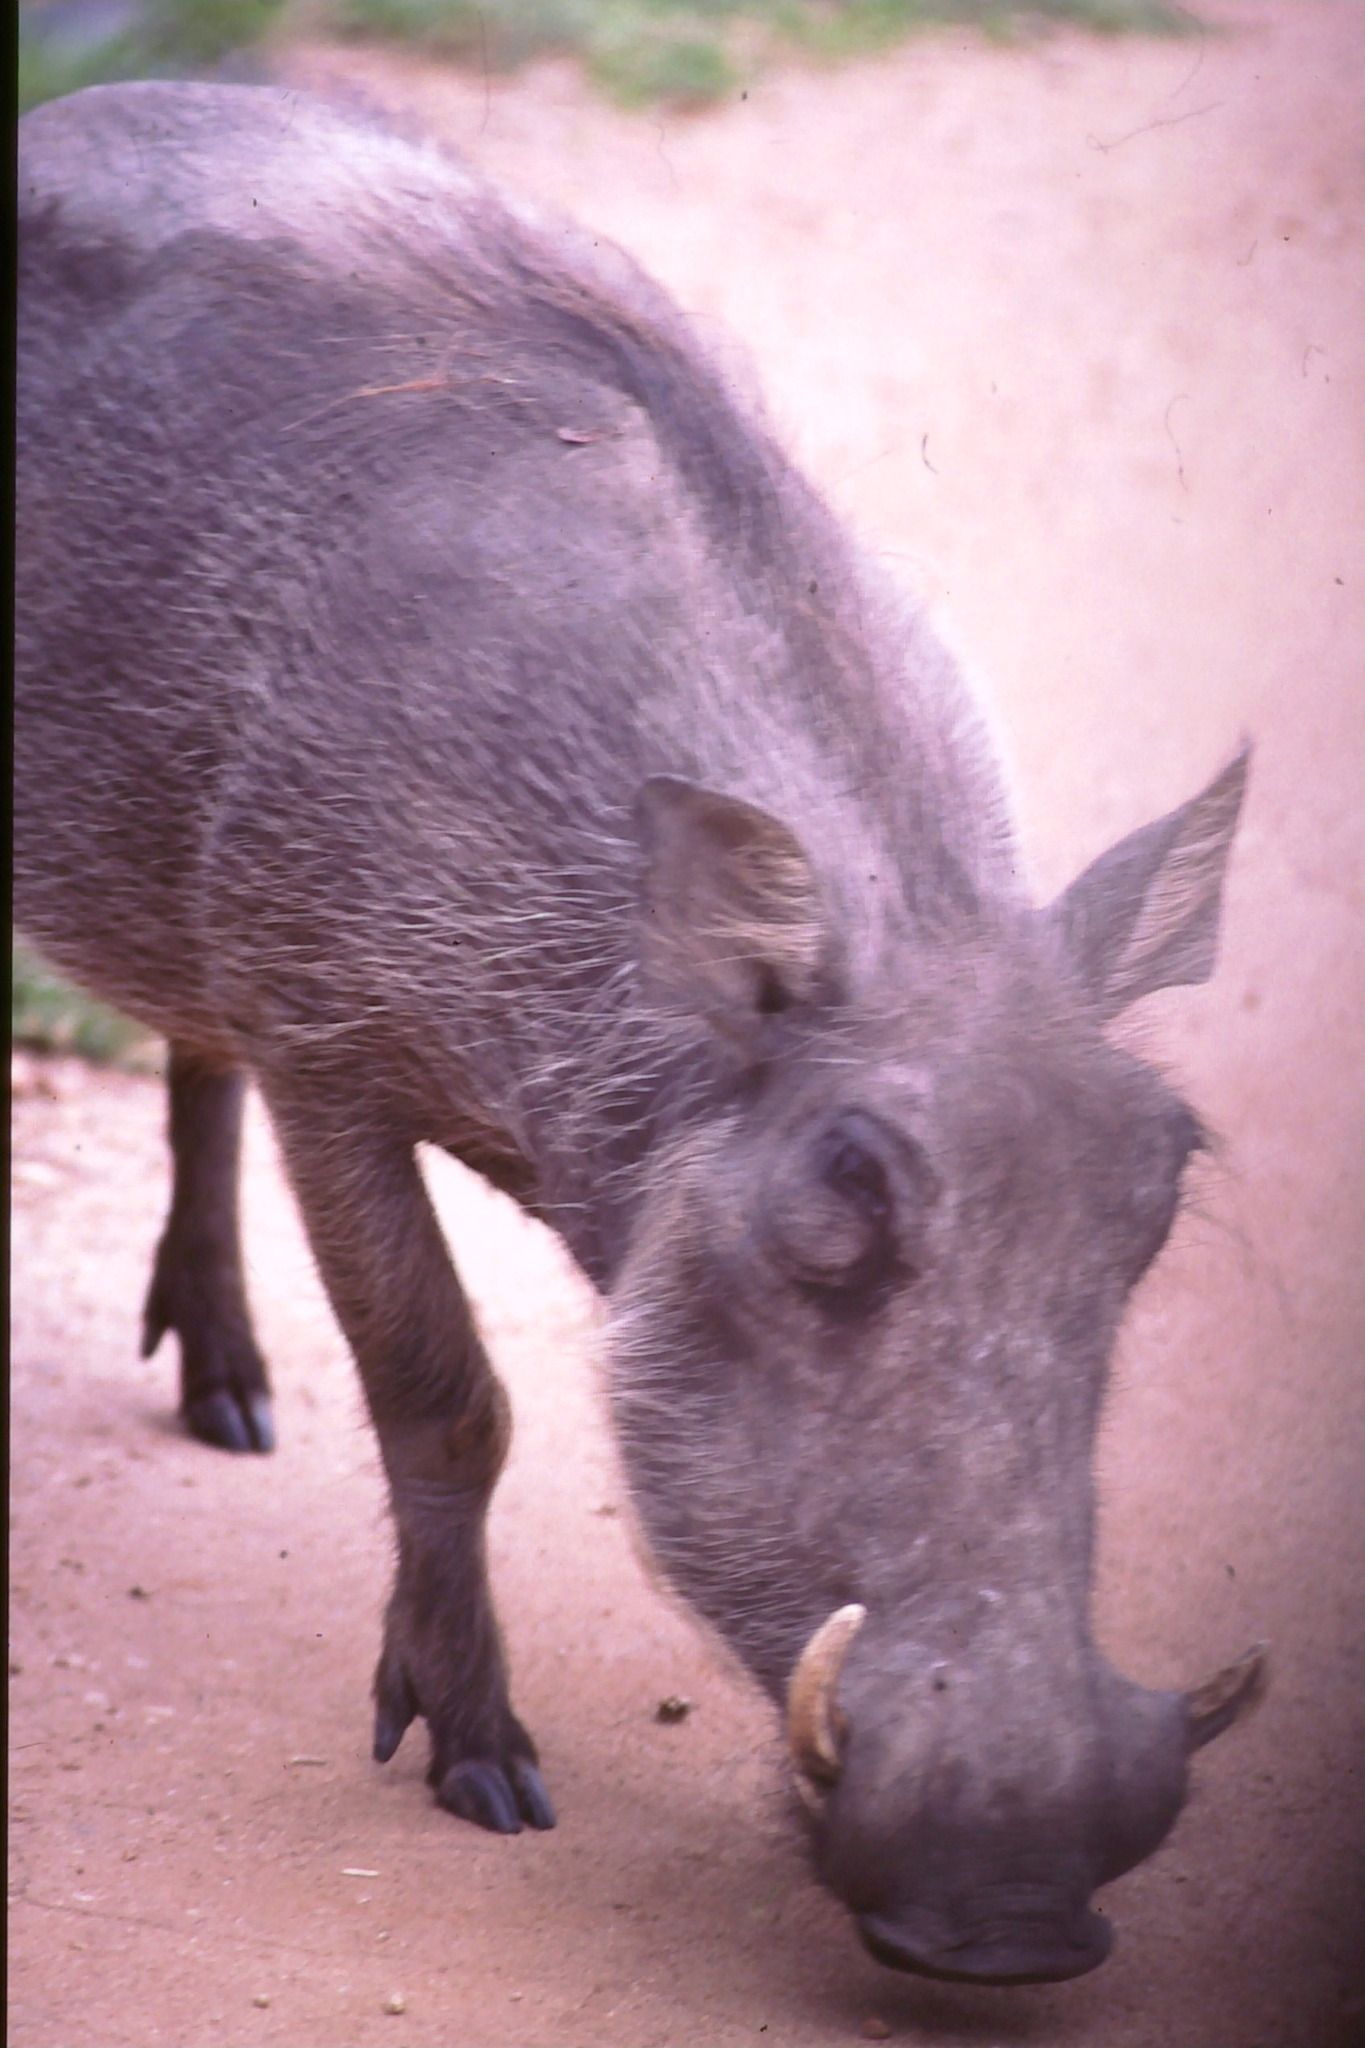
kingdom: Animalia
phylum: Chordata
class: Mammalia
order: Artiodactyla
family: Suidae
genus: Phacochoerus
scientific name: Phacochoerus africanus
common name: Common warthog
